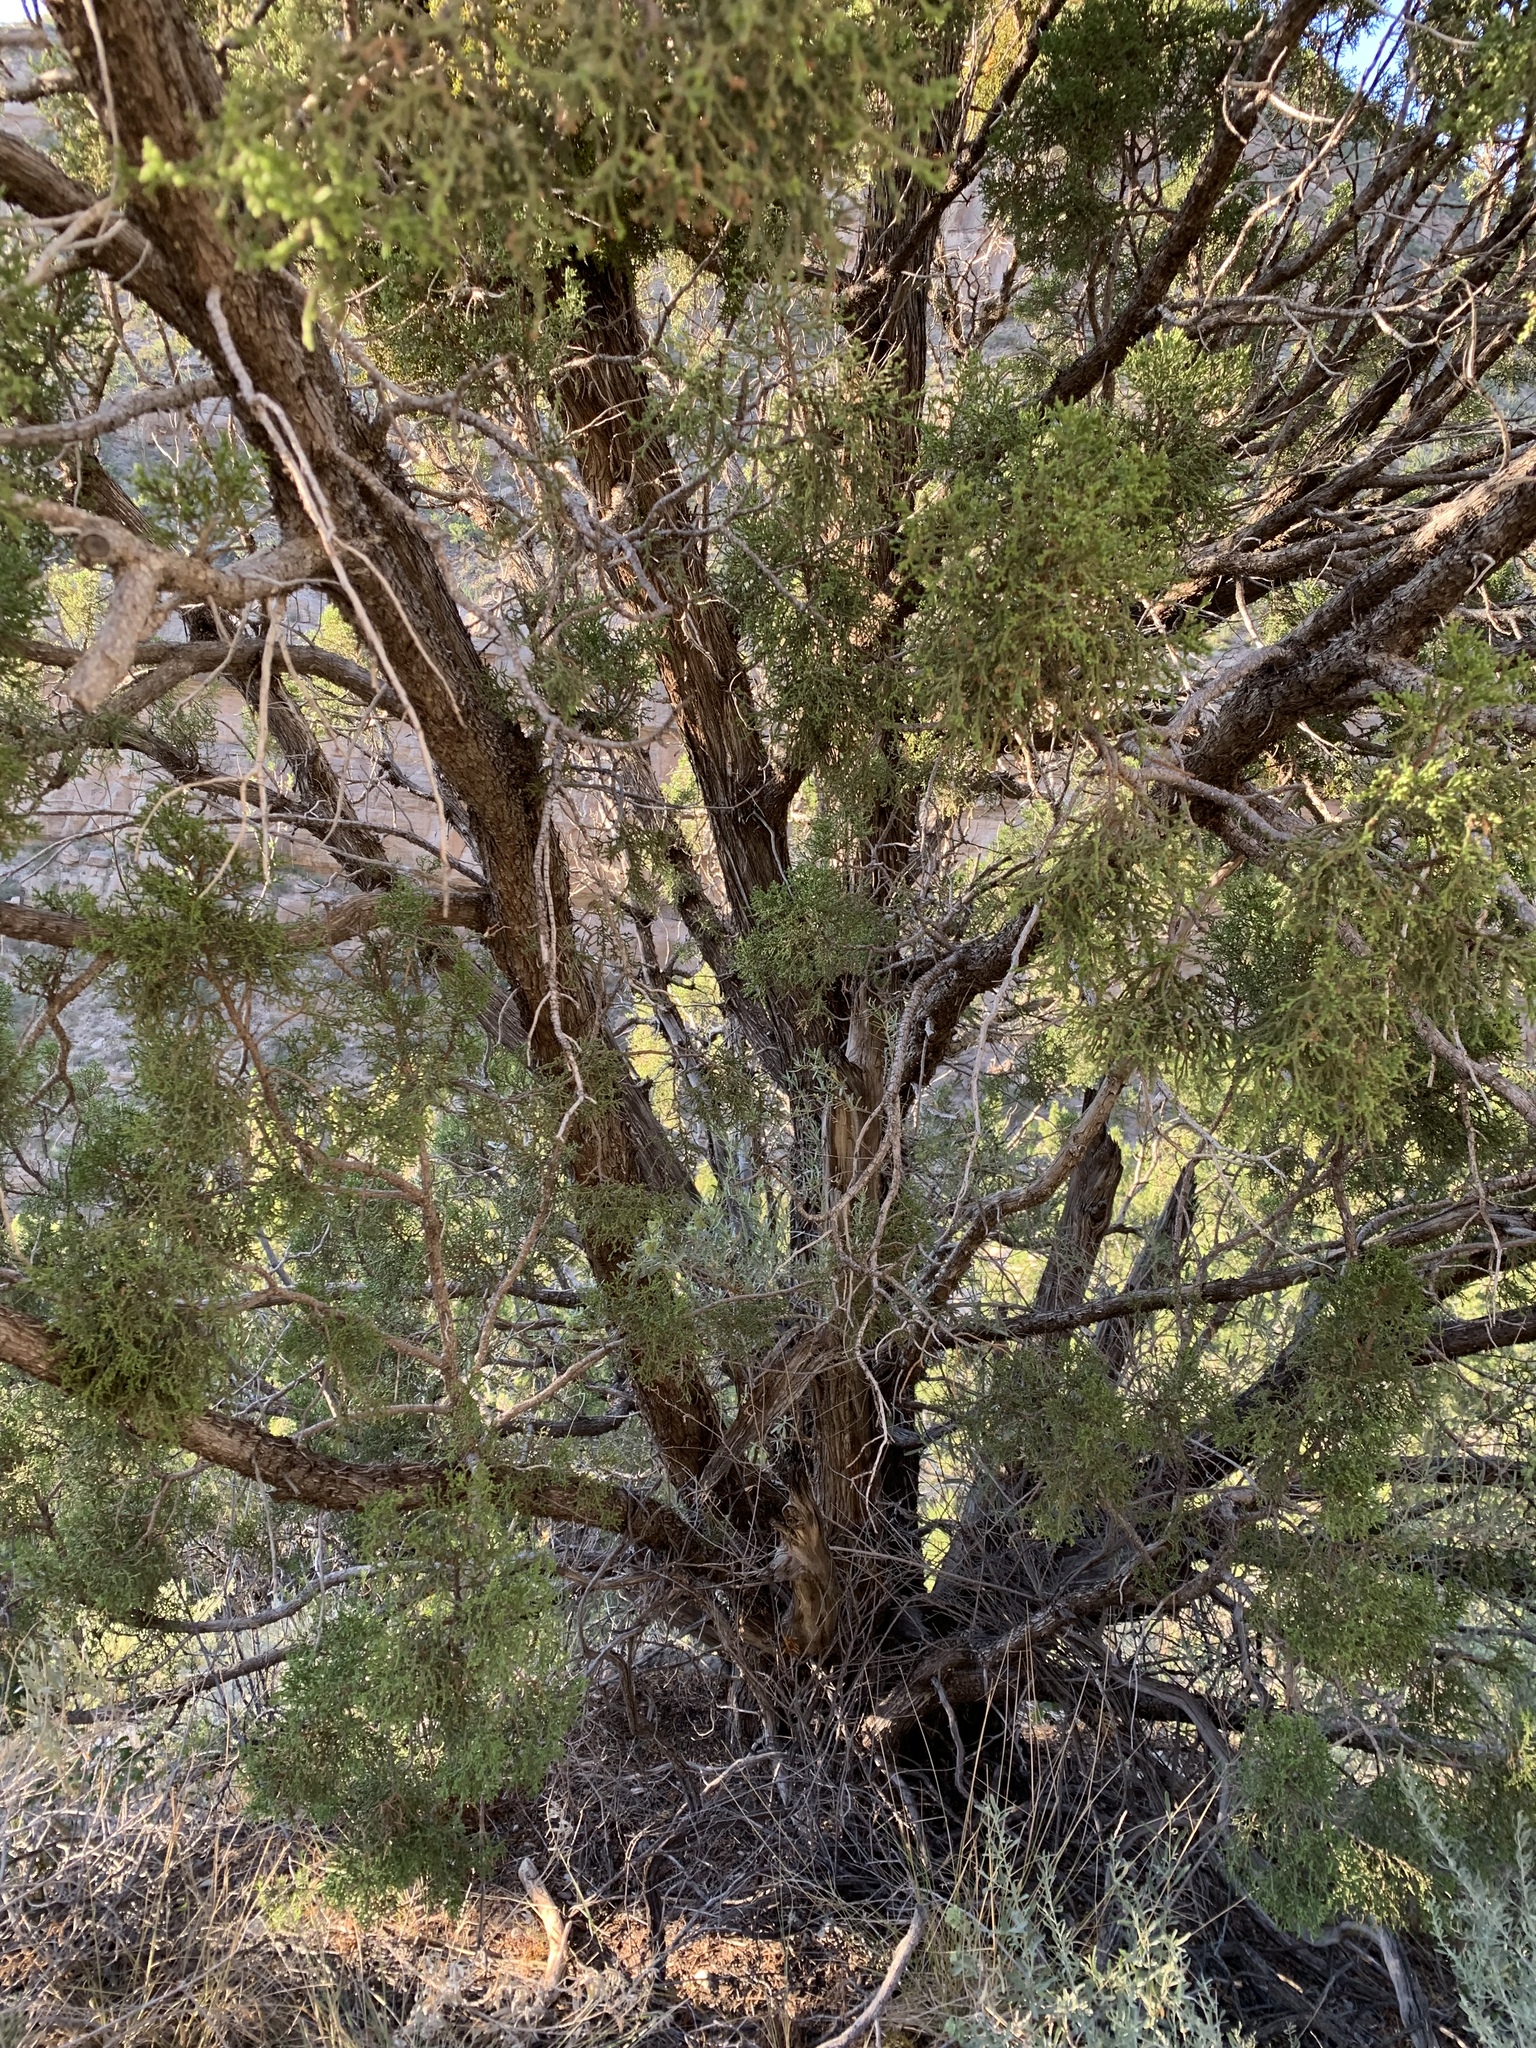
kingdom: Plantae
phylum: Tracheophyta
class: Pinopsida
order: Pinales
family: Cupressaceae
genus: Juniperus
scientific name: Juniperus monosperma
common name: One-seed juniper
